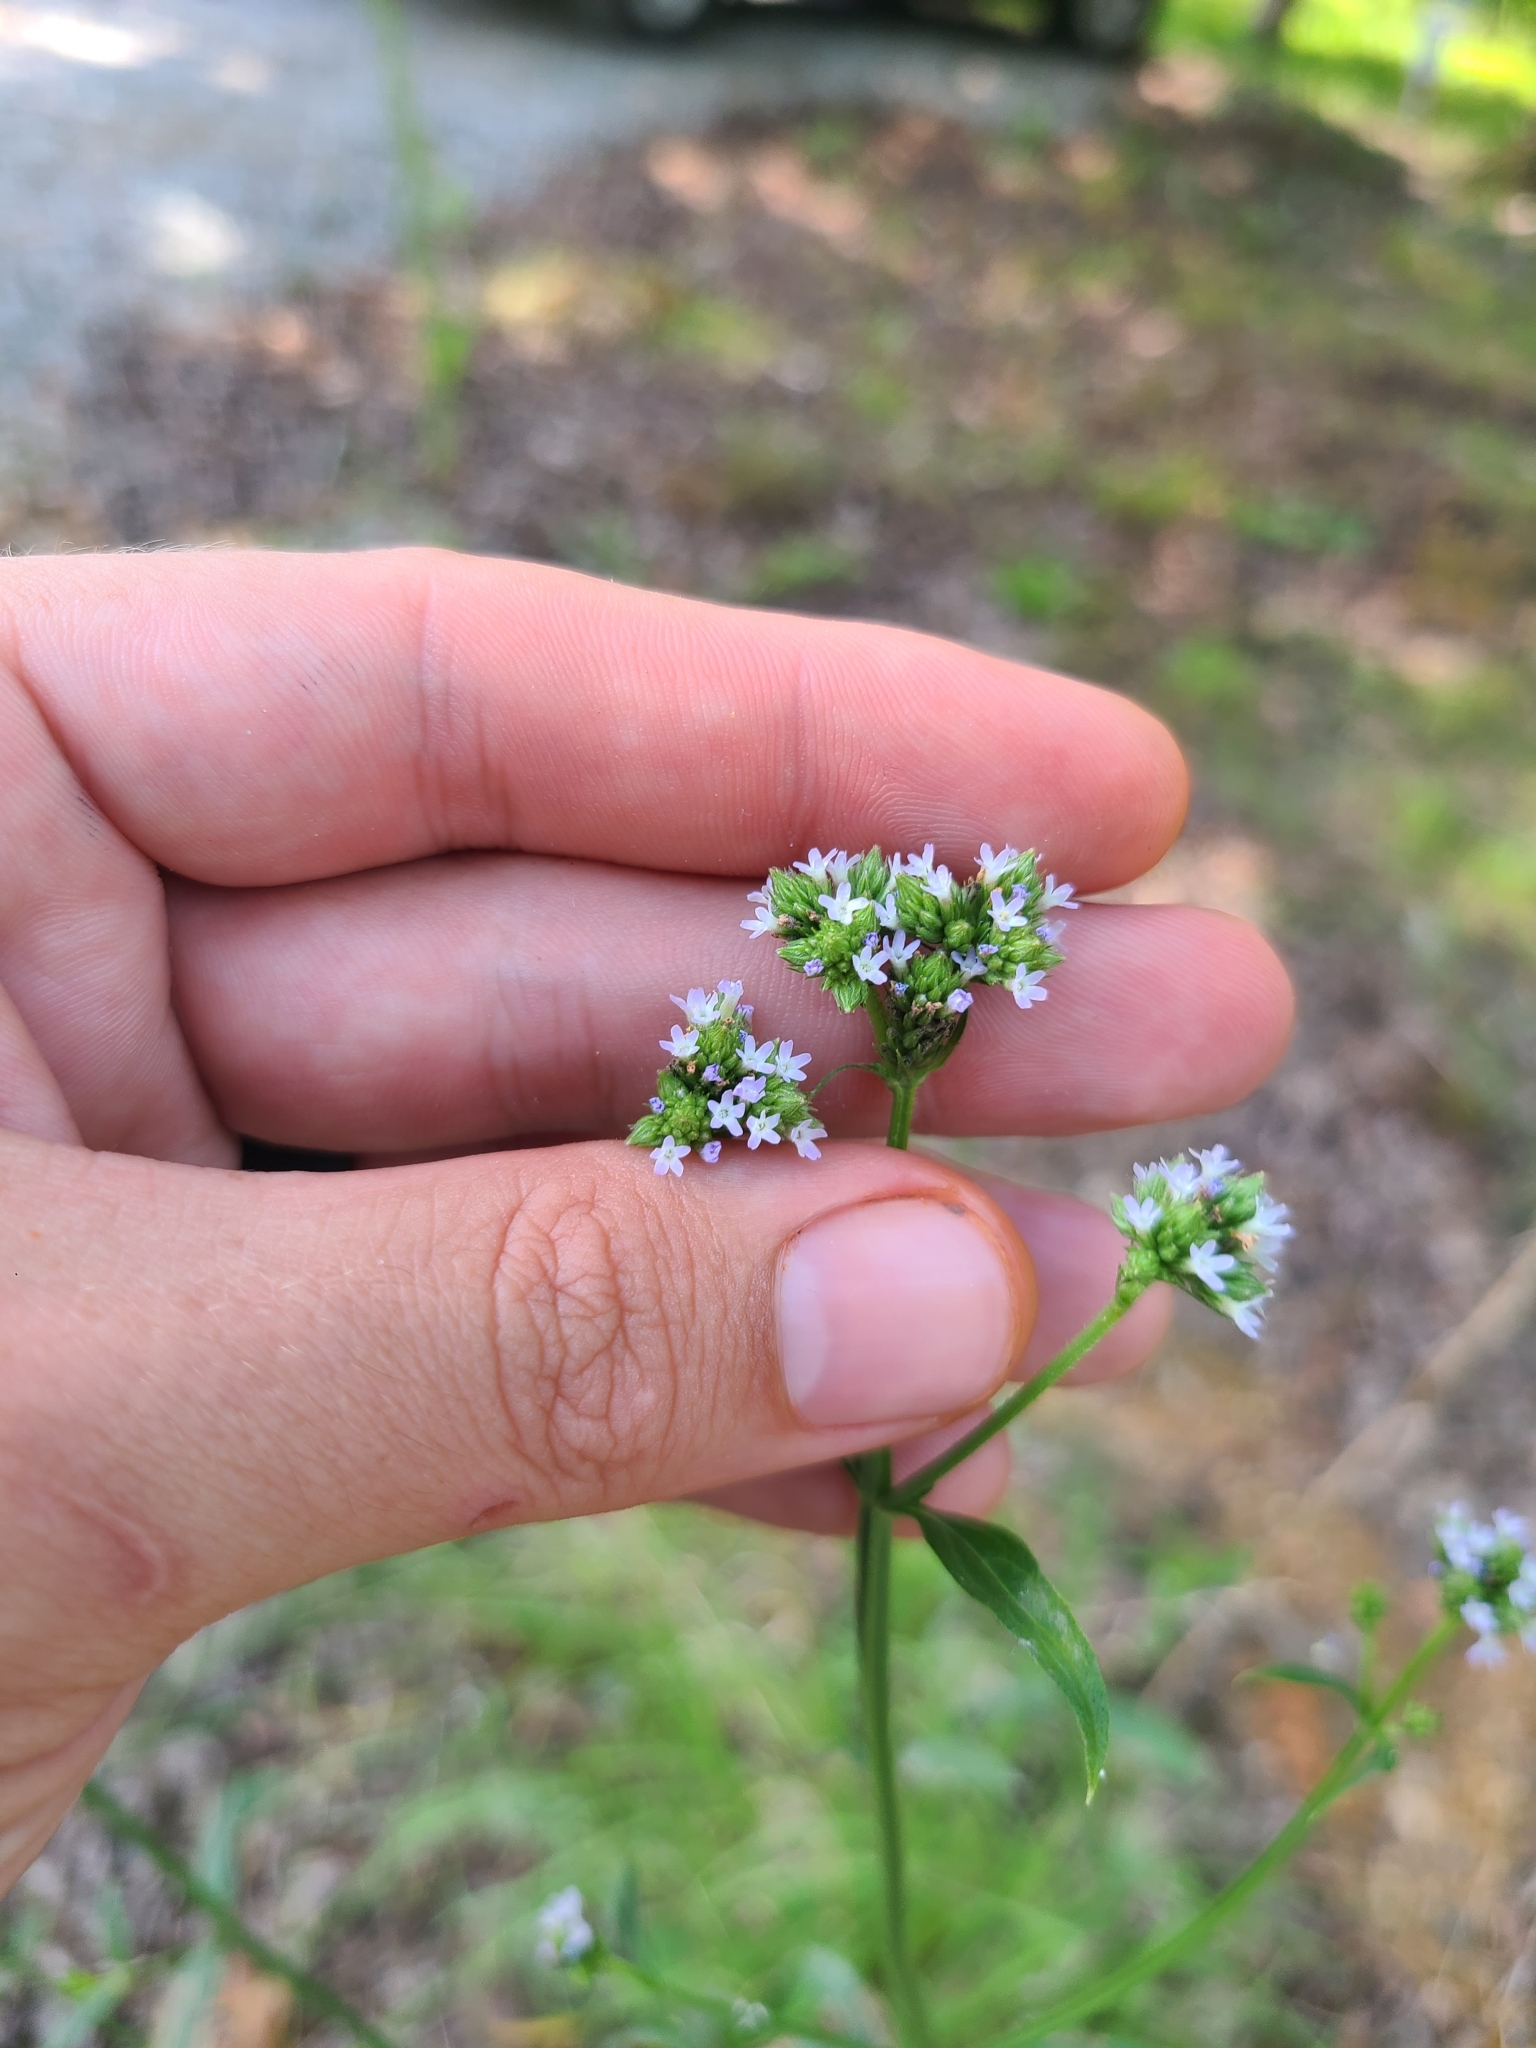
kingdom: Plantae
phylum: Tracheophyta
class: Magnoliopsida
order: Lamiales
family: Verbenaceae
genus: Verbena
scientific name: Verbena incompta
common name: Purpletop vervain
